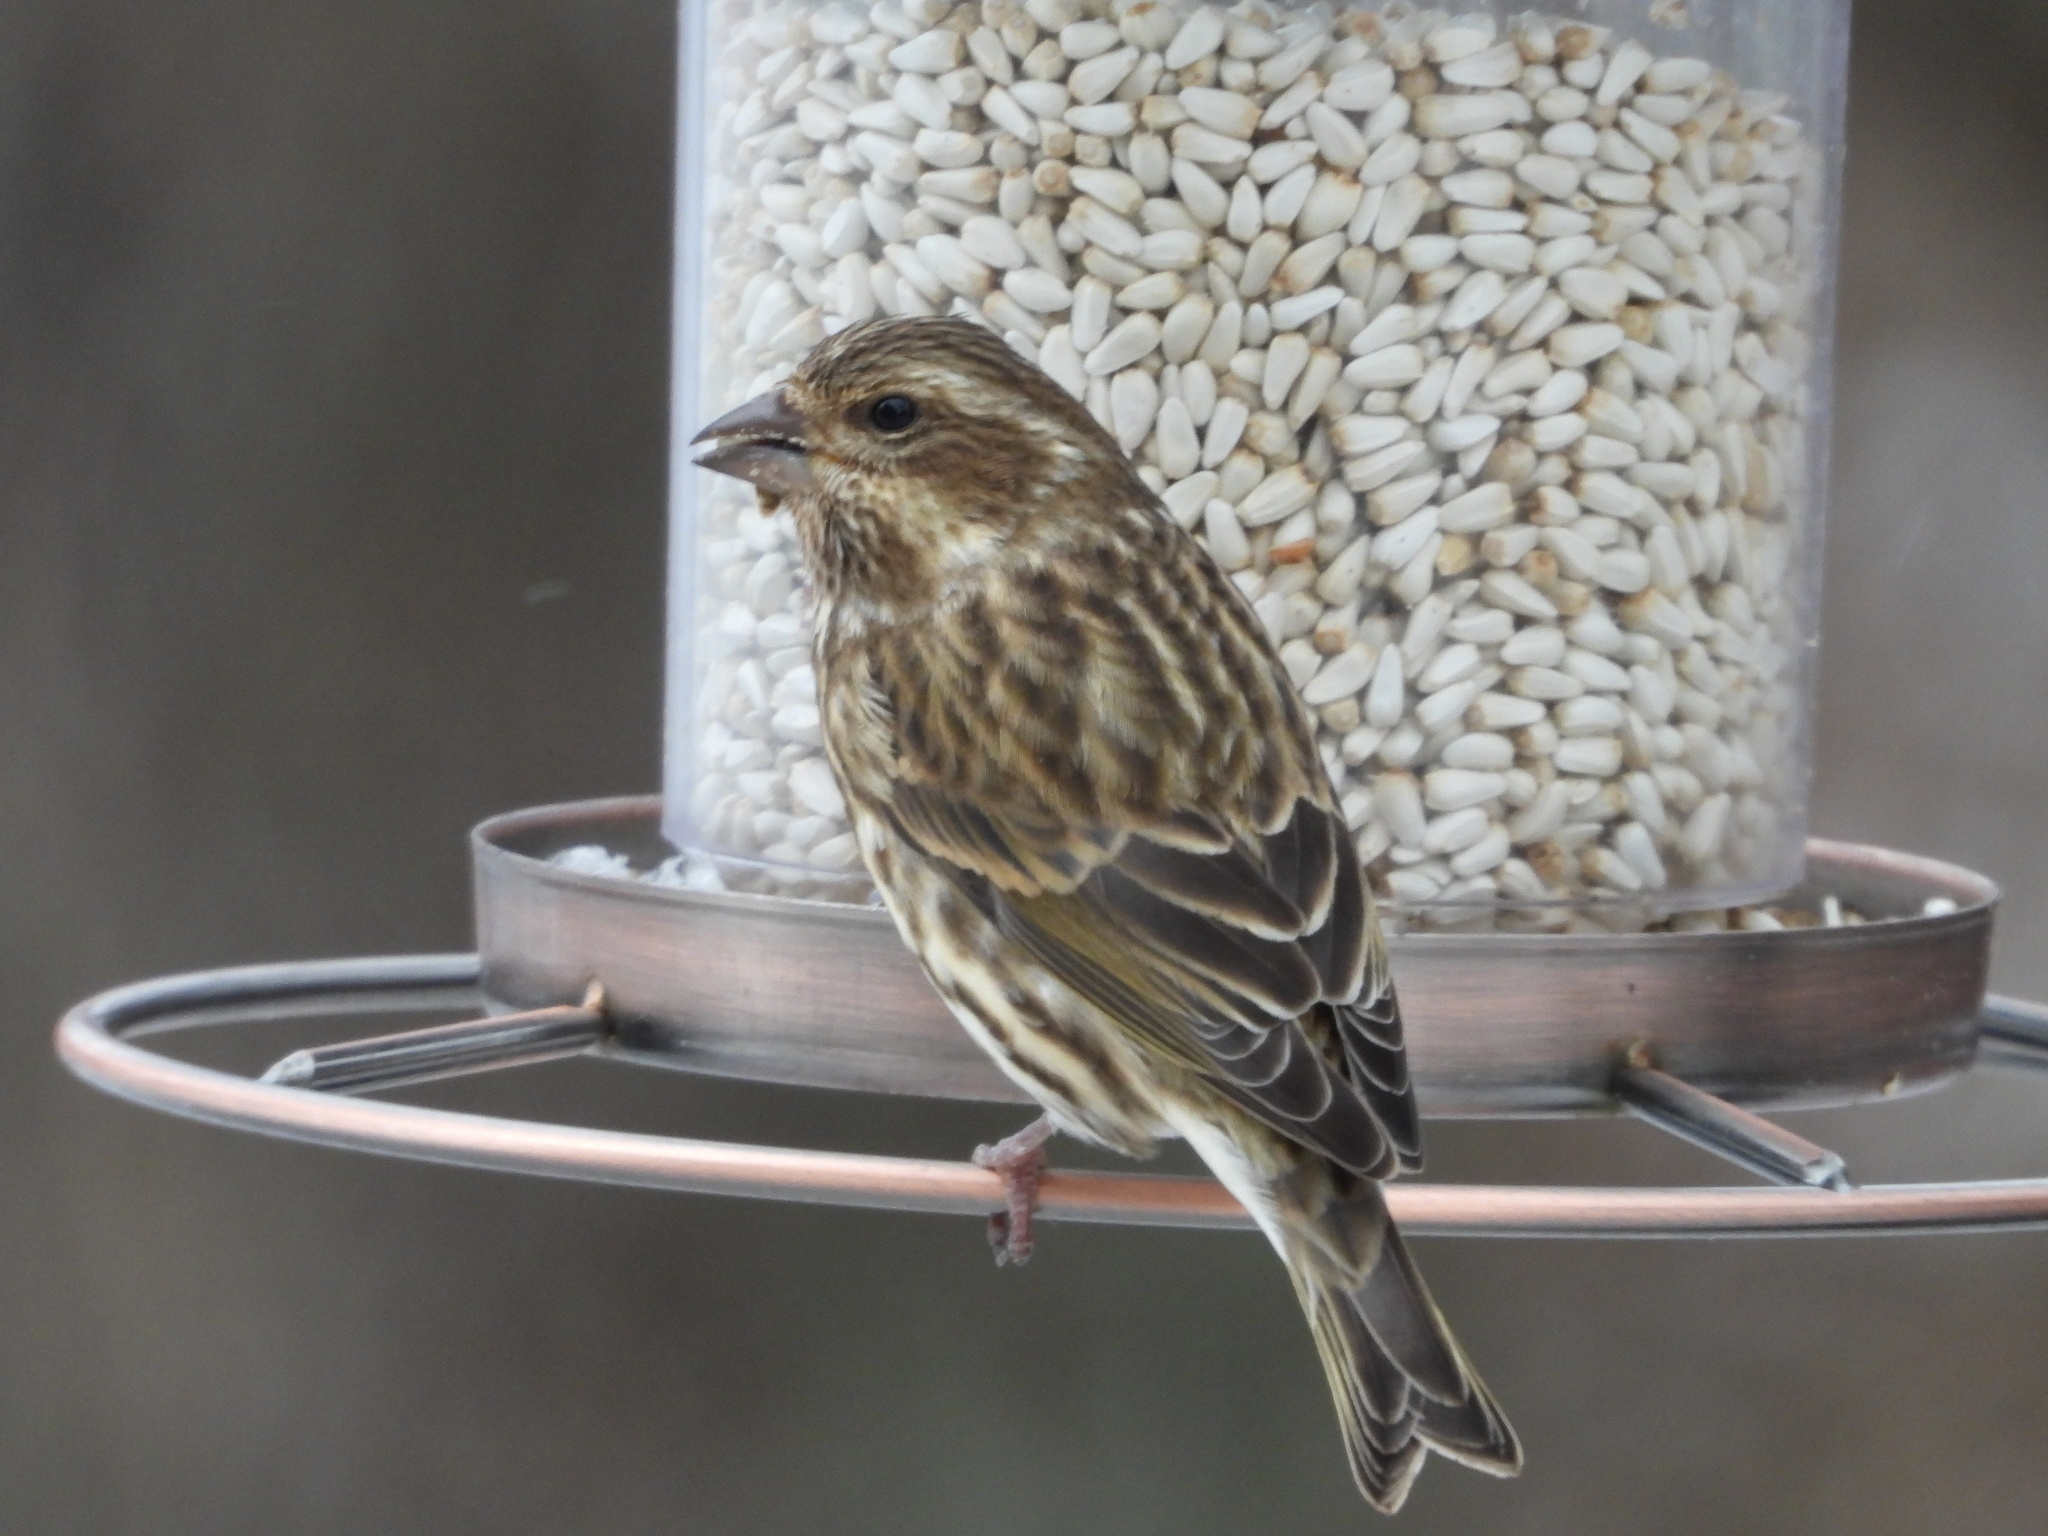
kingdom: Animalia
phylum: Chordata
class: Aves
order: Passeriformes
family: Fringillidae
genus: Haemorhous
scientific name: Haemorhous purpureus
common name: Purple finch
